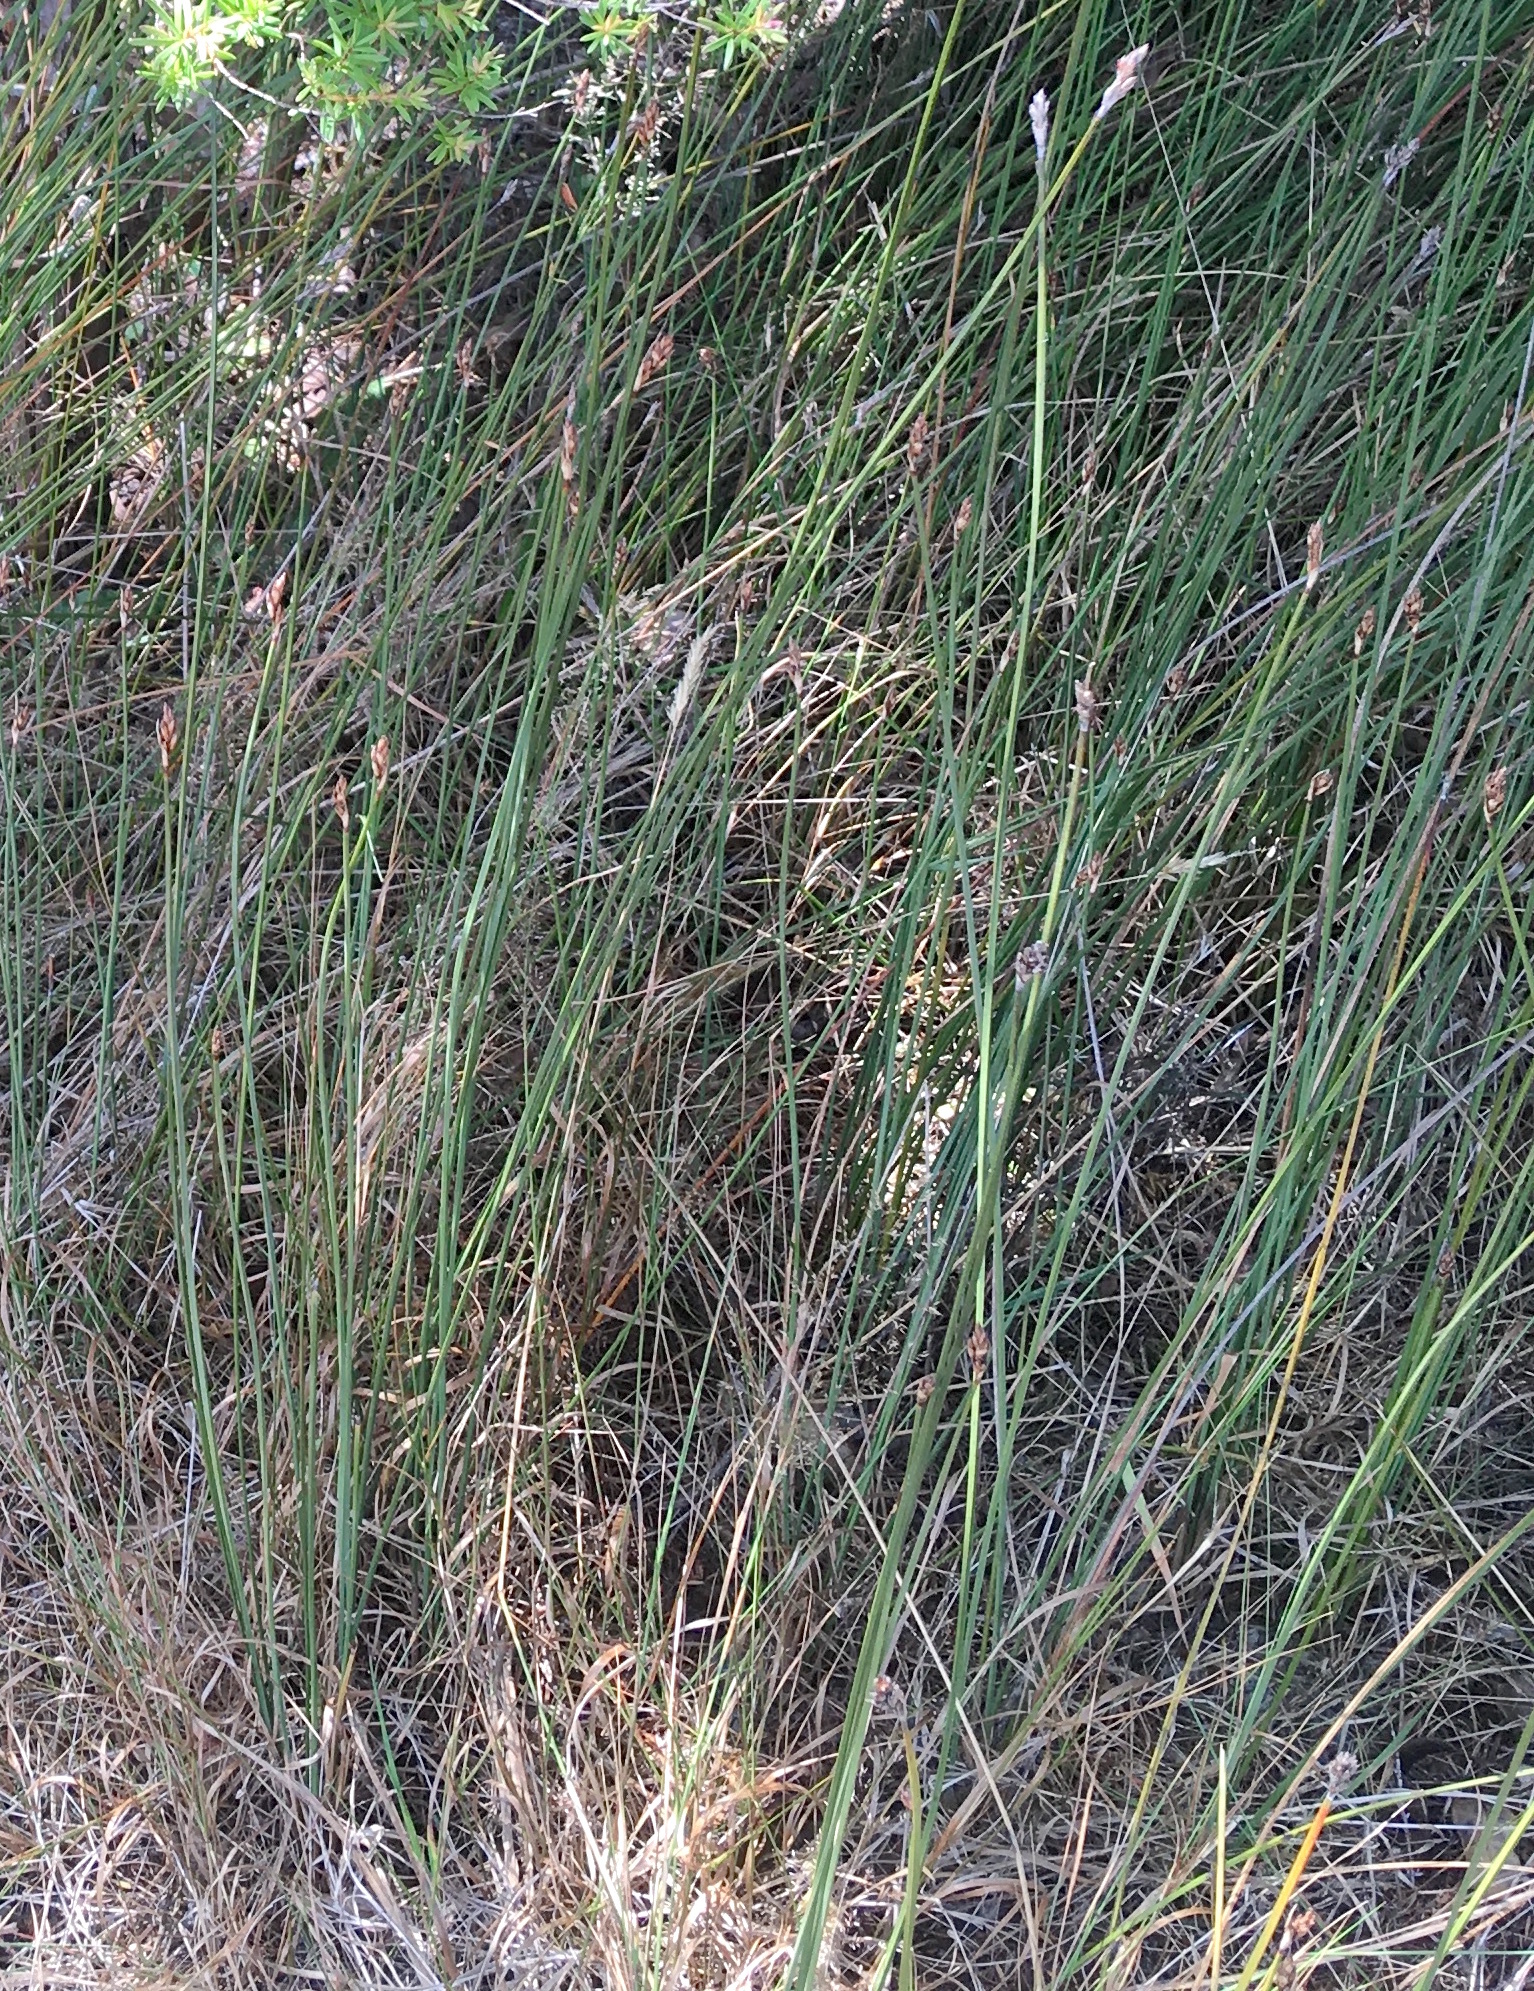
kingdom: Plantae
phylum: Tracheophyta
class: Liliopsida
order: Poales
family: Cyperaceae
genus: Lepidosperma
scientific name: Lepidosperma australe
